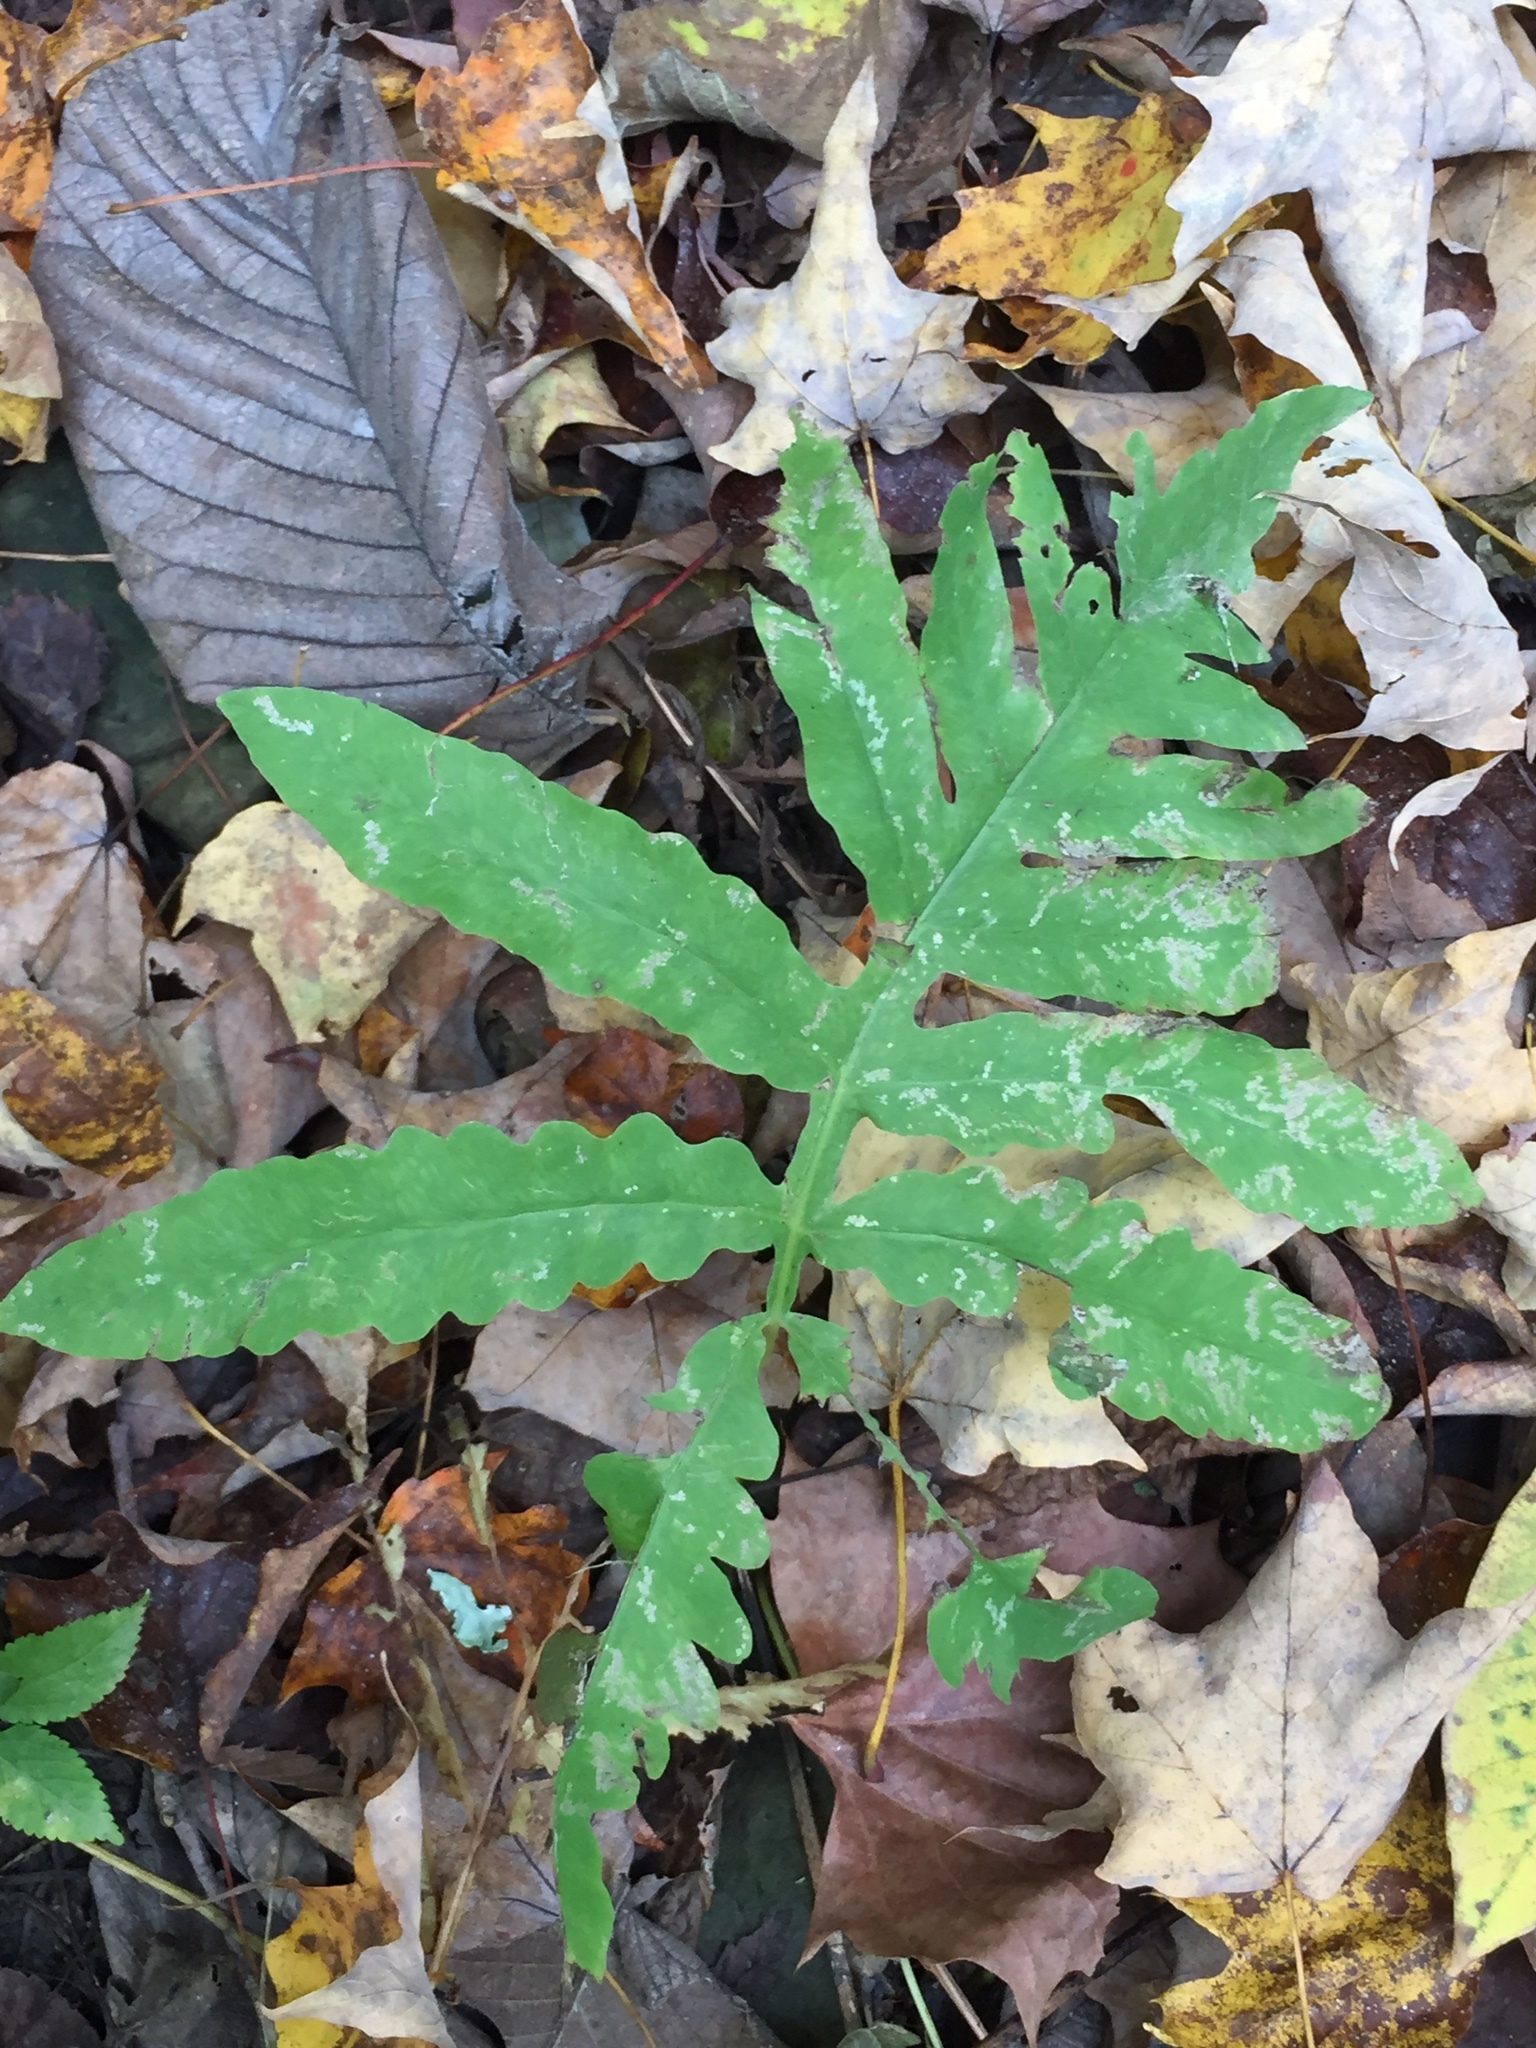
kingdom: Plantae
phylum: Tracheophyta
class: Polypodiopsida
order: Polypodiales
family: Onocleaceae
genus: Onoclea
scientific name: Onoclea sensibilis
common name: Sensitive fern
